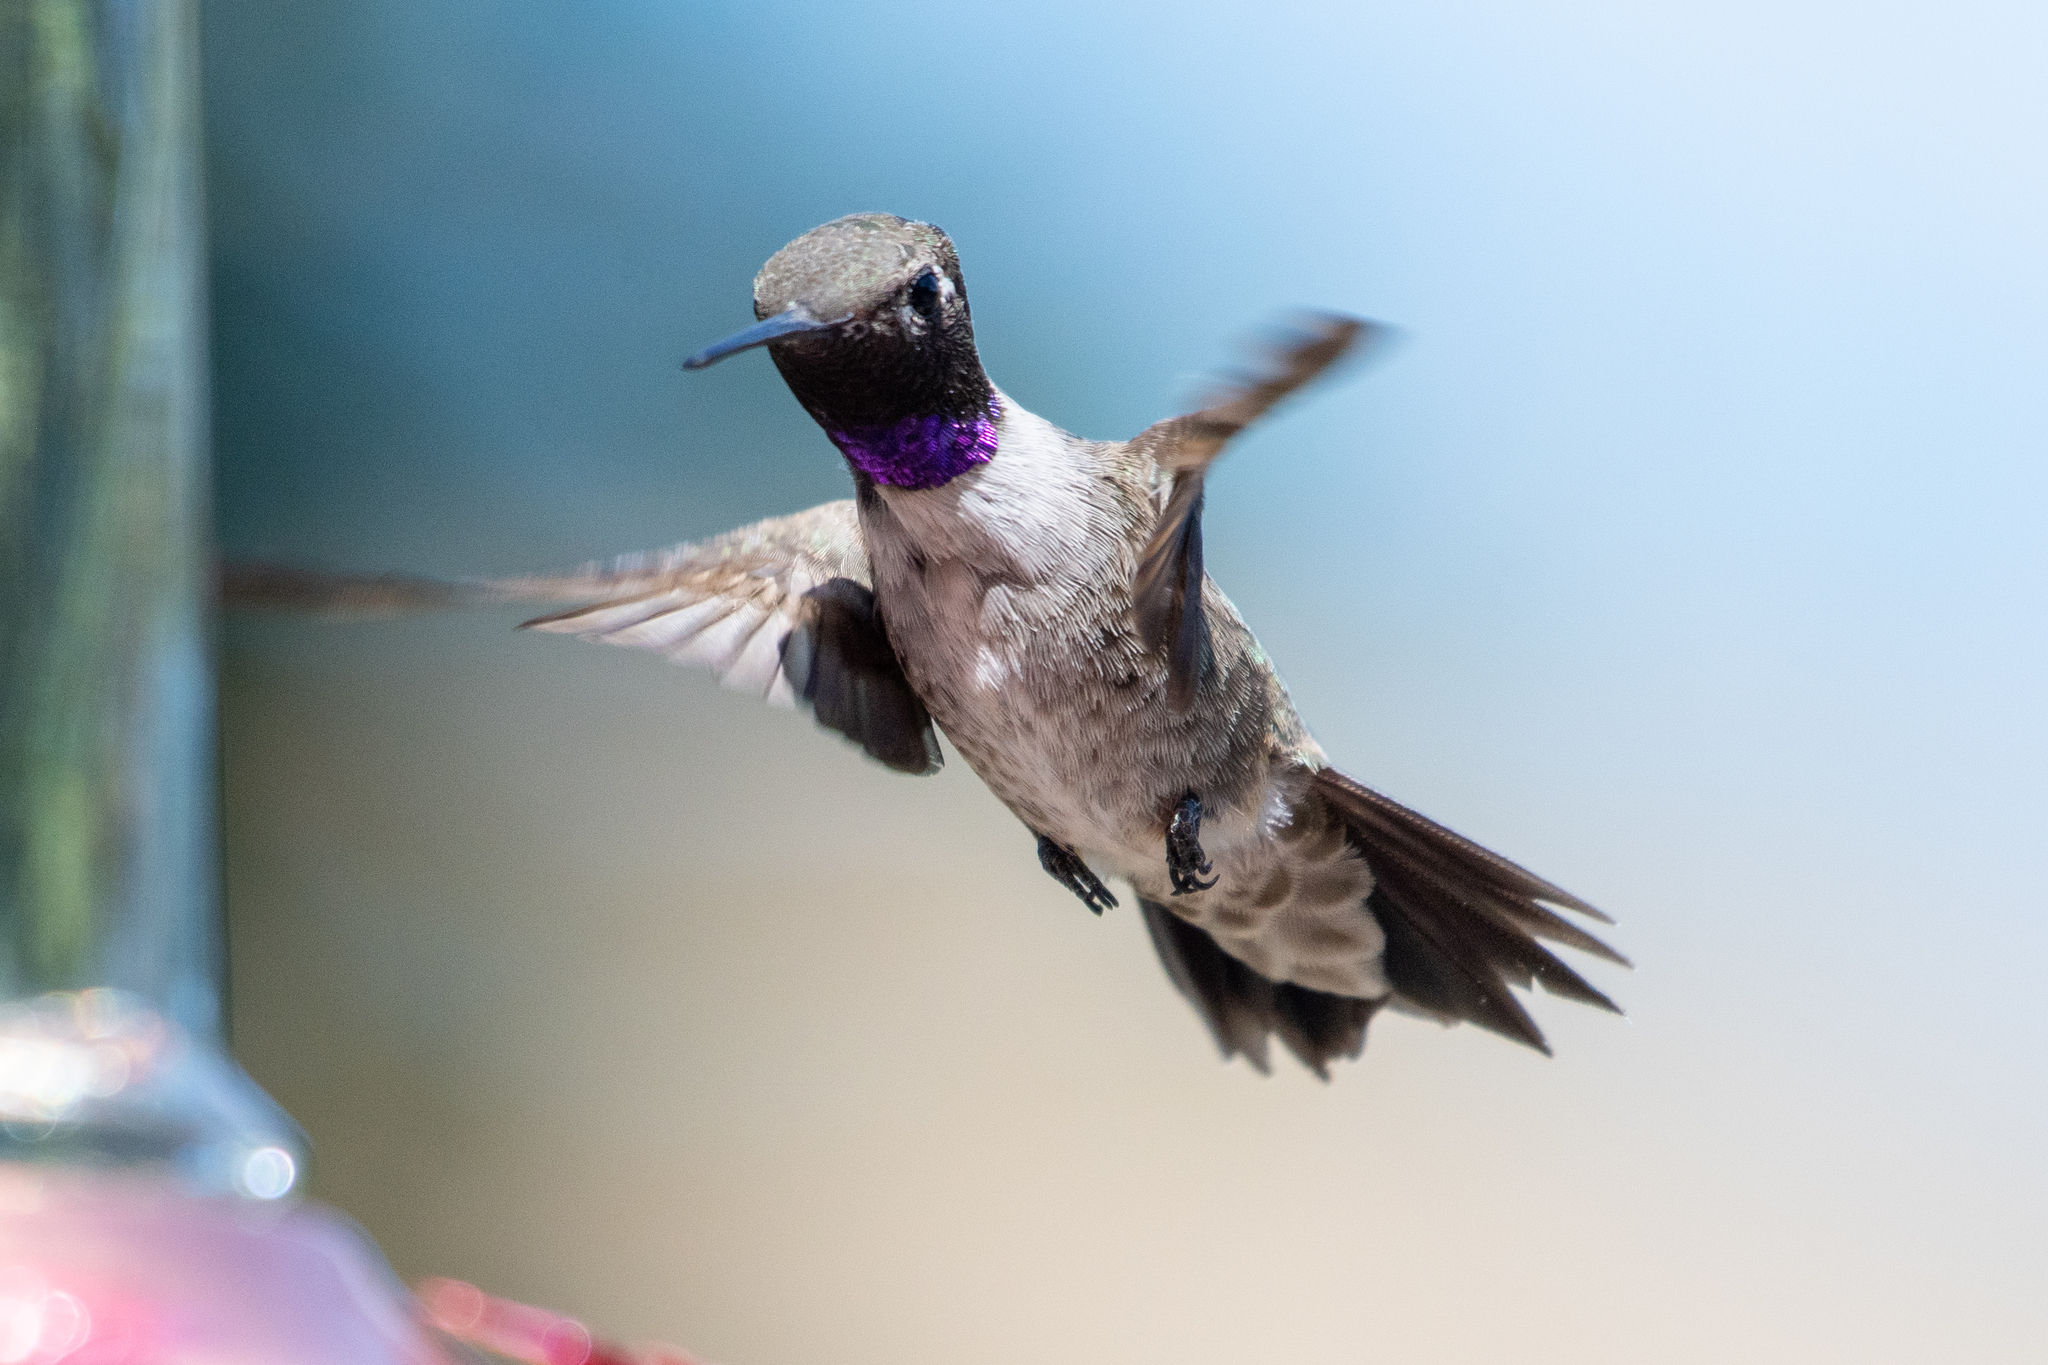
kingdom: Animalia
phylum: Chordata
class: Aves
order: Apodiformes
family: Trochilidae
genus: Archilochus
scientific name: Archilochus alexandri
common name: Black-chinned hummingbird
